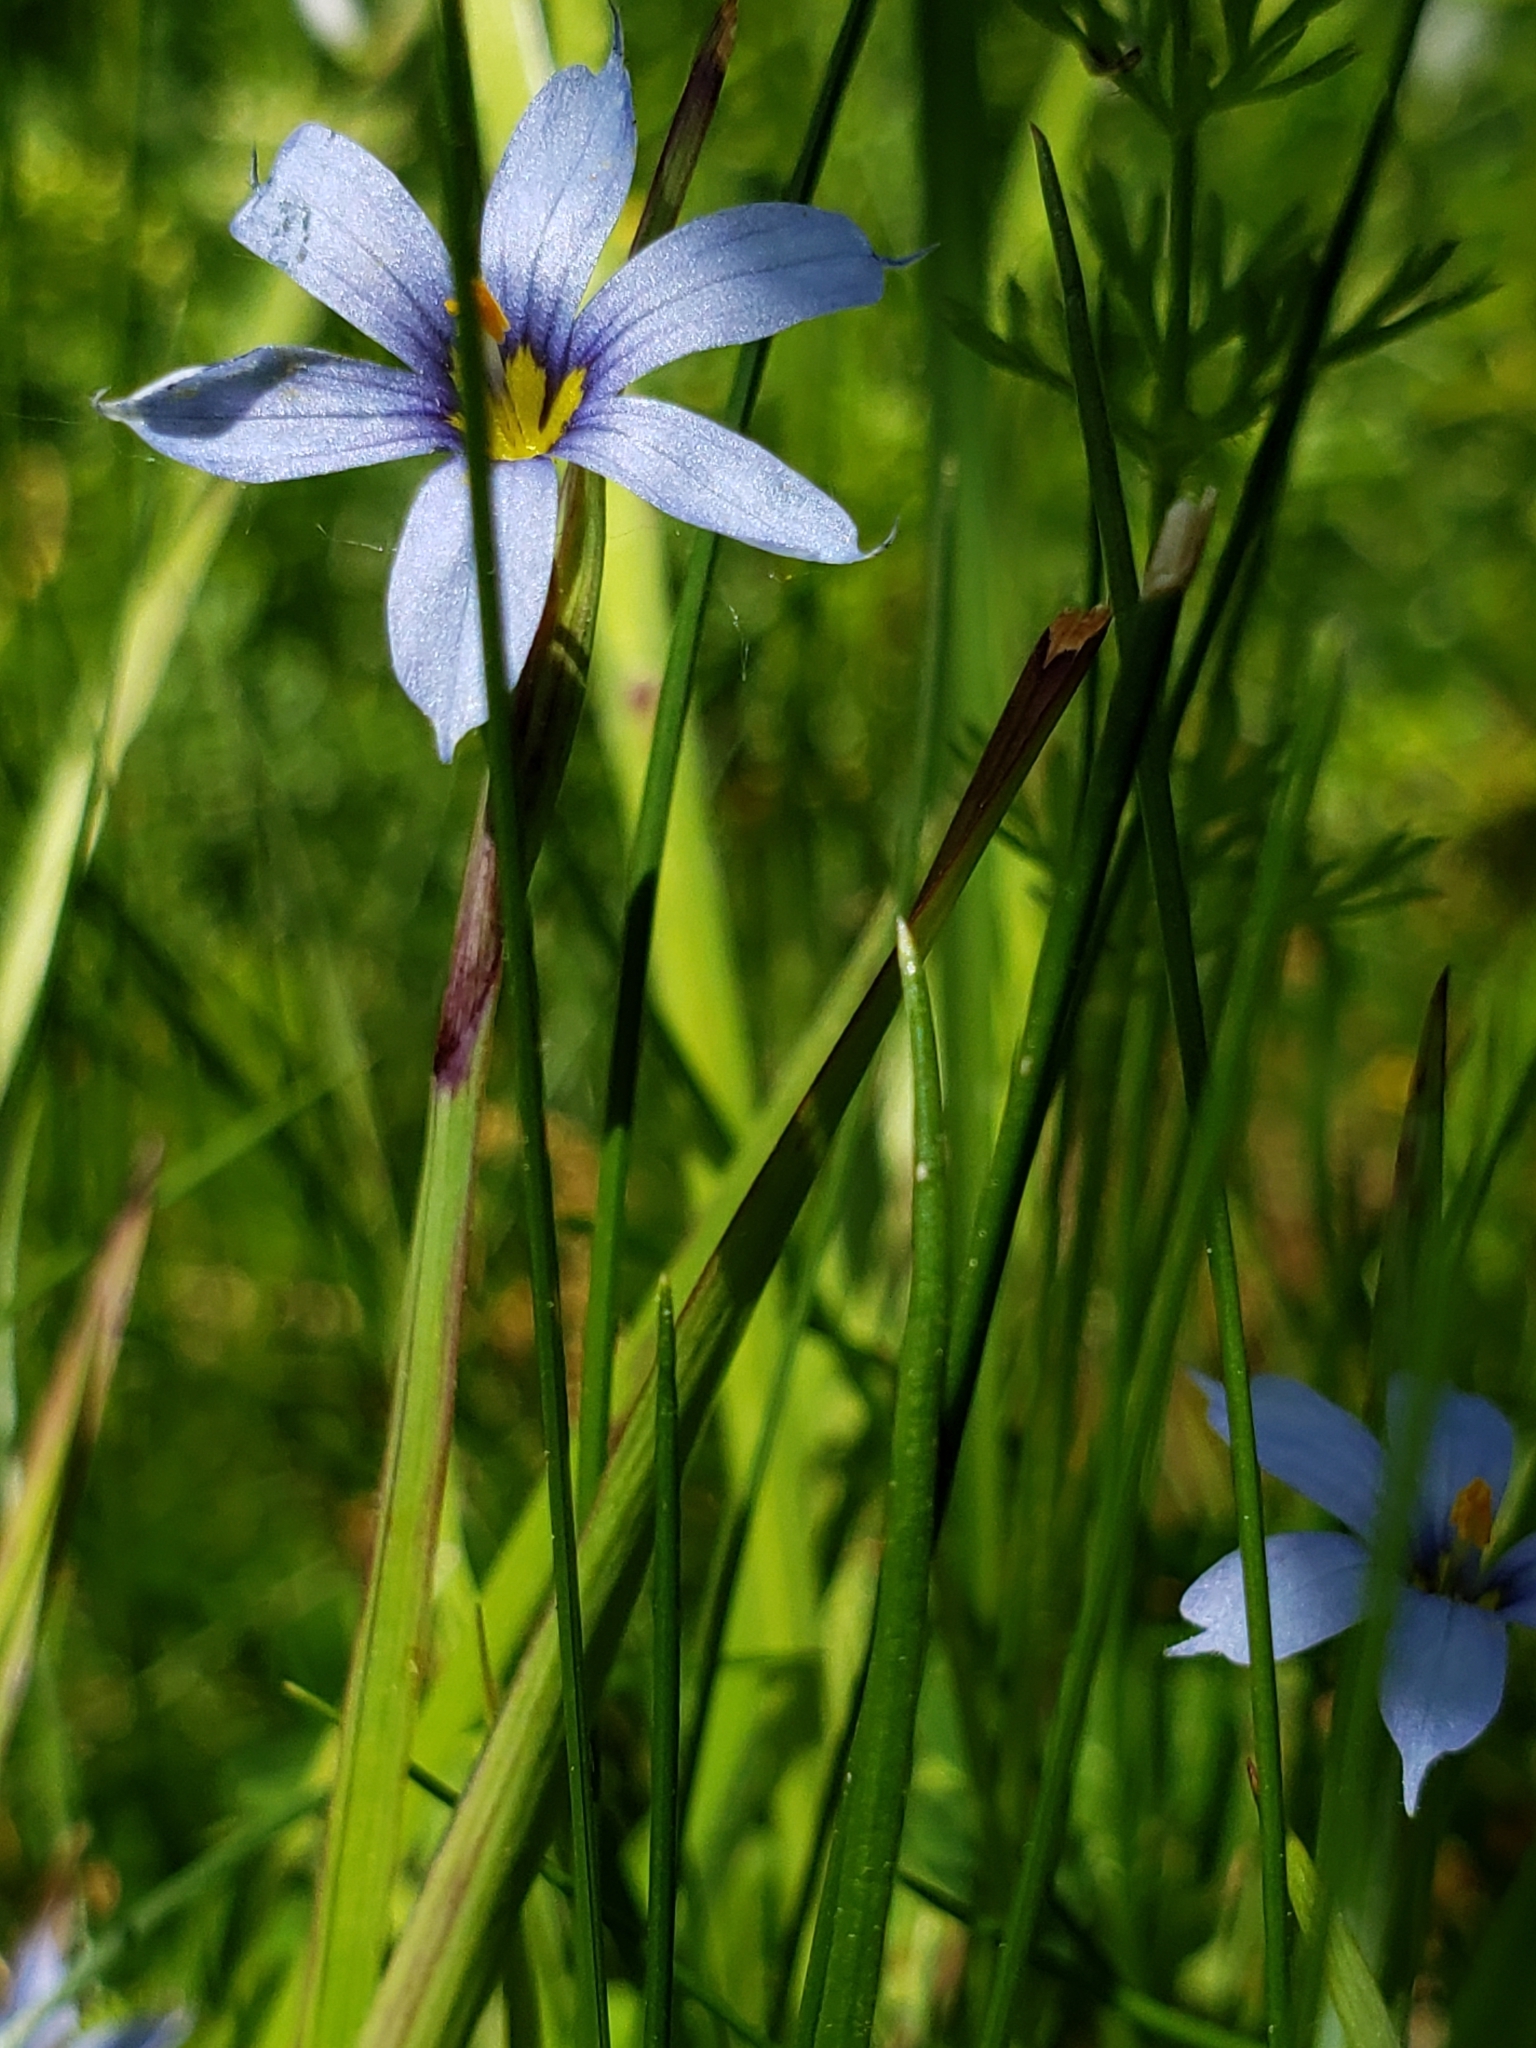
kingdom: Plantae
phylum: Tracheophyta
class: Liliopsida
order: Asparagales
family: Iridaceae
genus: Sisyrinchium
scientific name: Sisyrinchium atlanticum
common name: Eastern blue-eyed-grass
